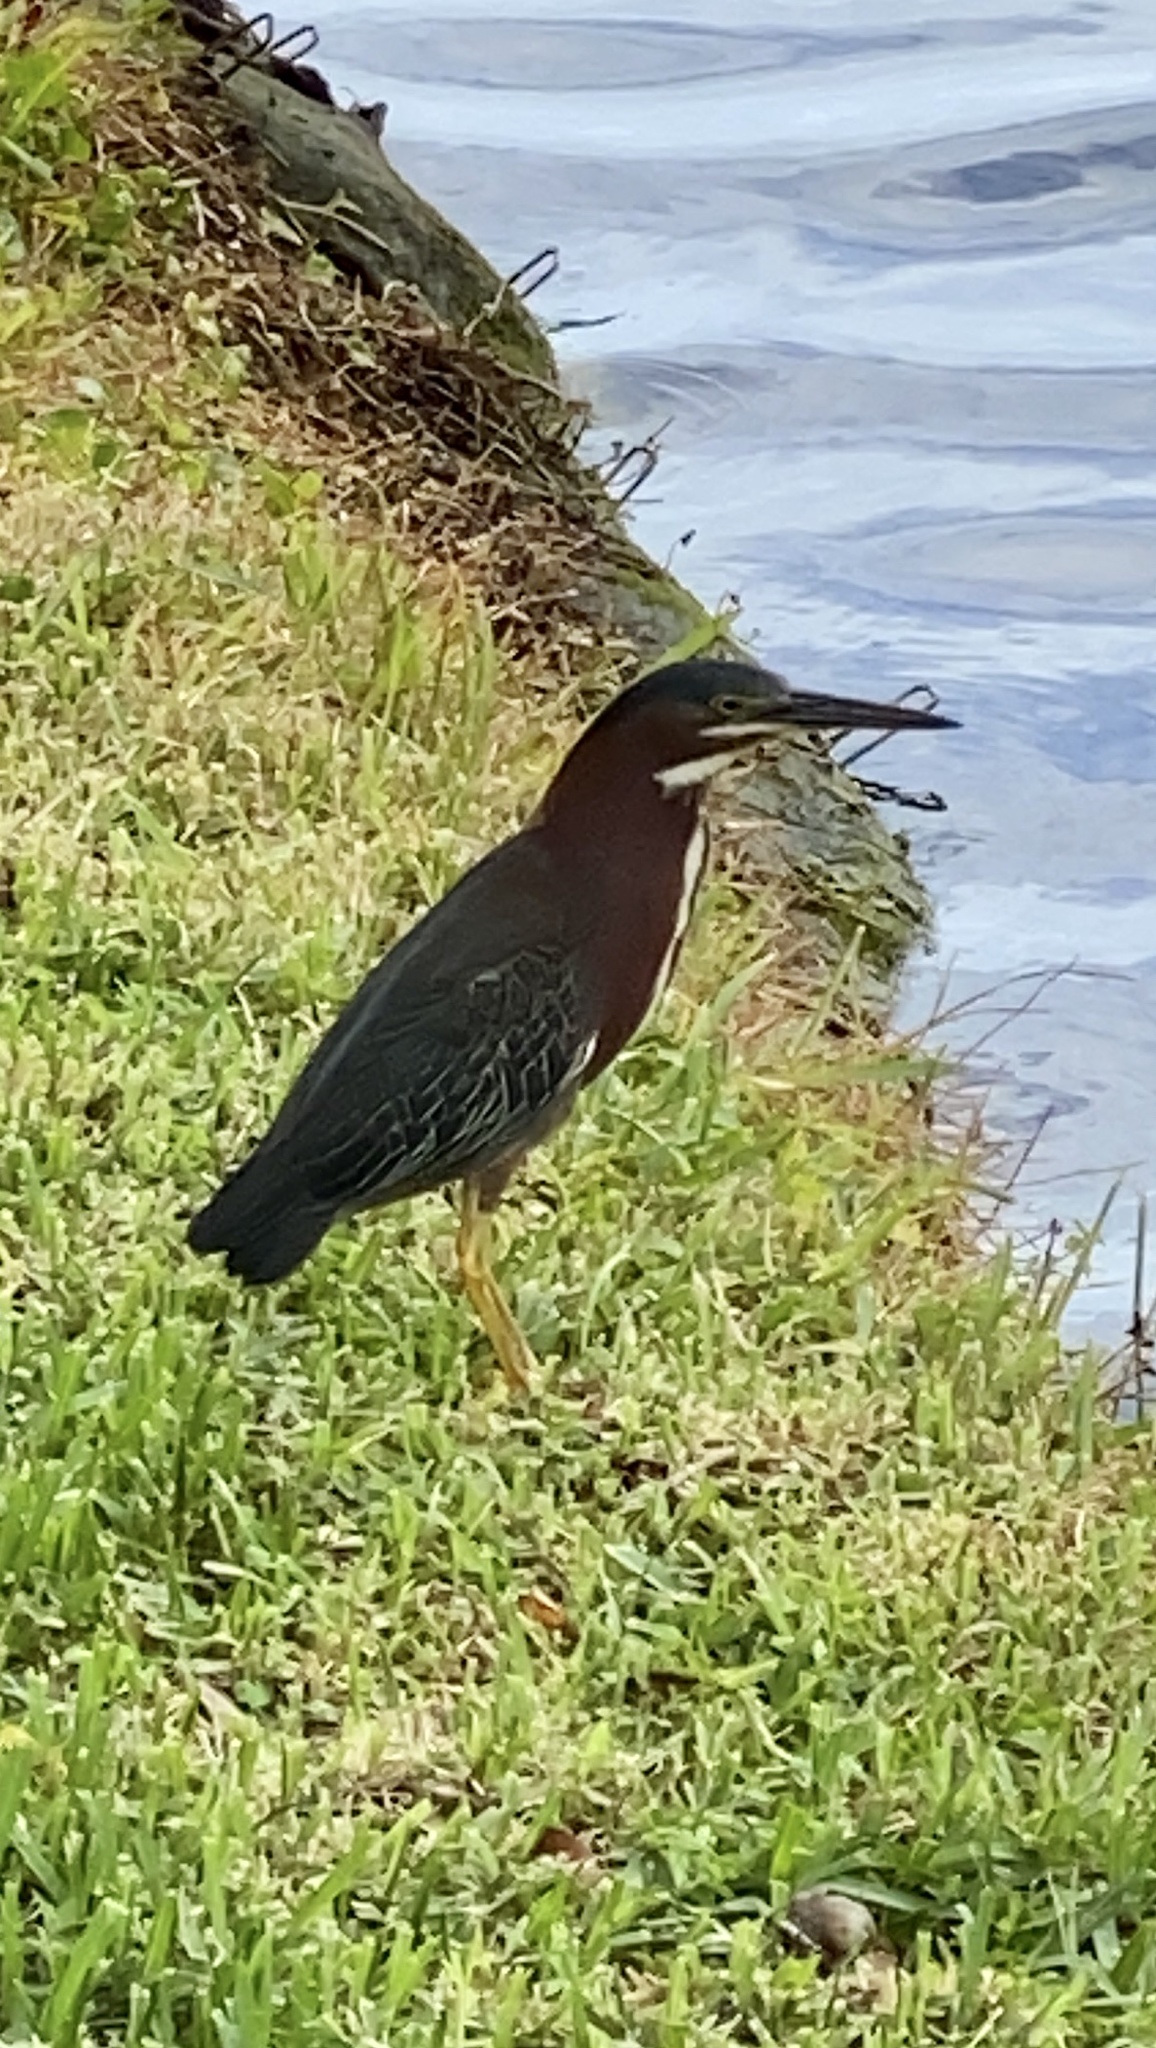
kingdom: Animalia
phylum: Chordata
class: Aves
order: Pelecaniformes
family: Ardeidae
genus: Butorides
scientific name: Butorides virescens
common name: Green heron
